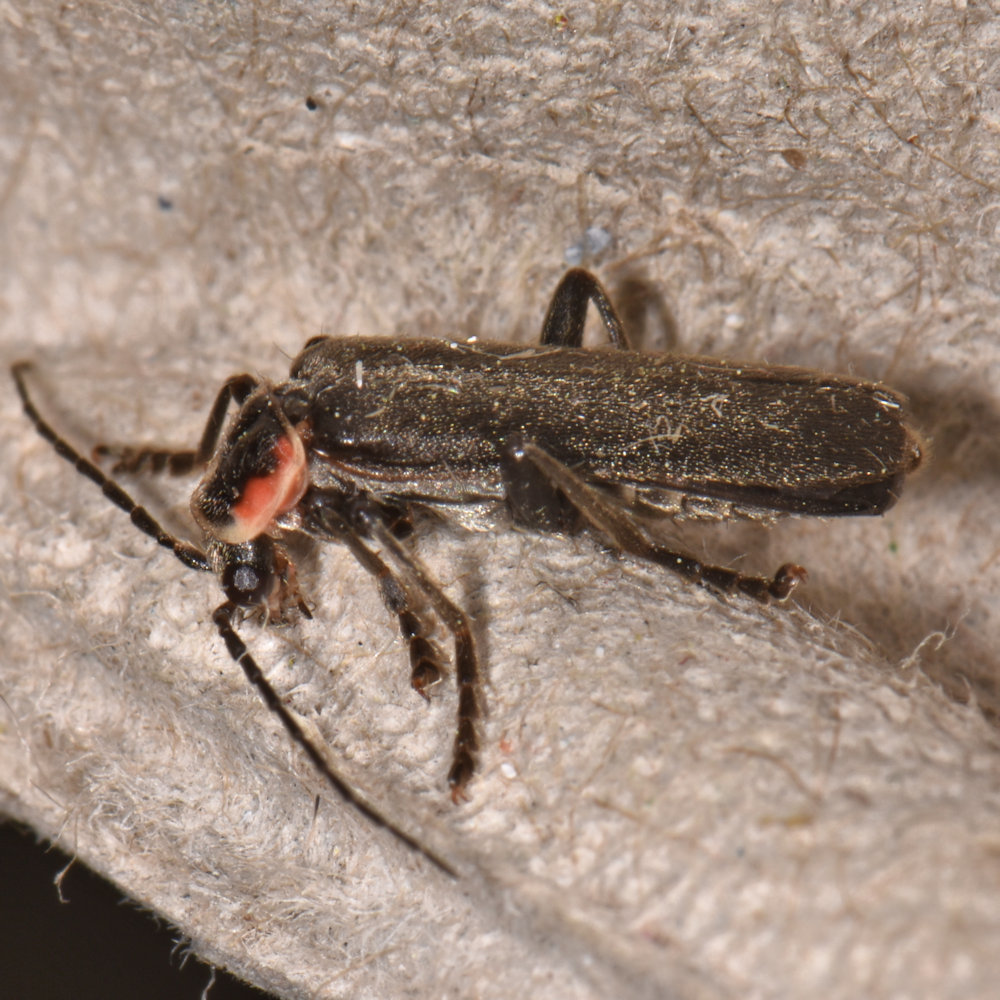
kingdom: Animalia
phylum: Arthropoda
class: Insecta
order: Coleoptera
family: Cantharidae
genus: Rhaxonycha
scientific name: Rhaxonycha bilobata
